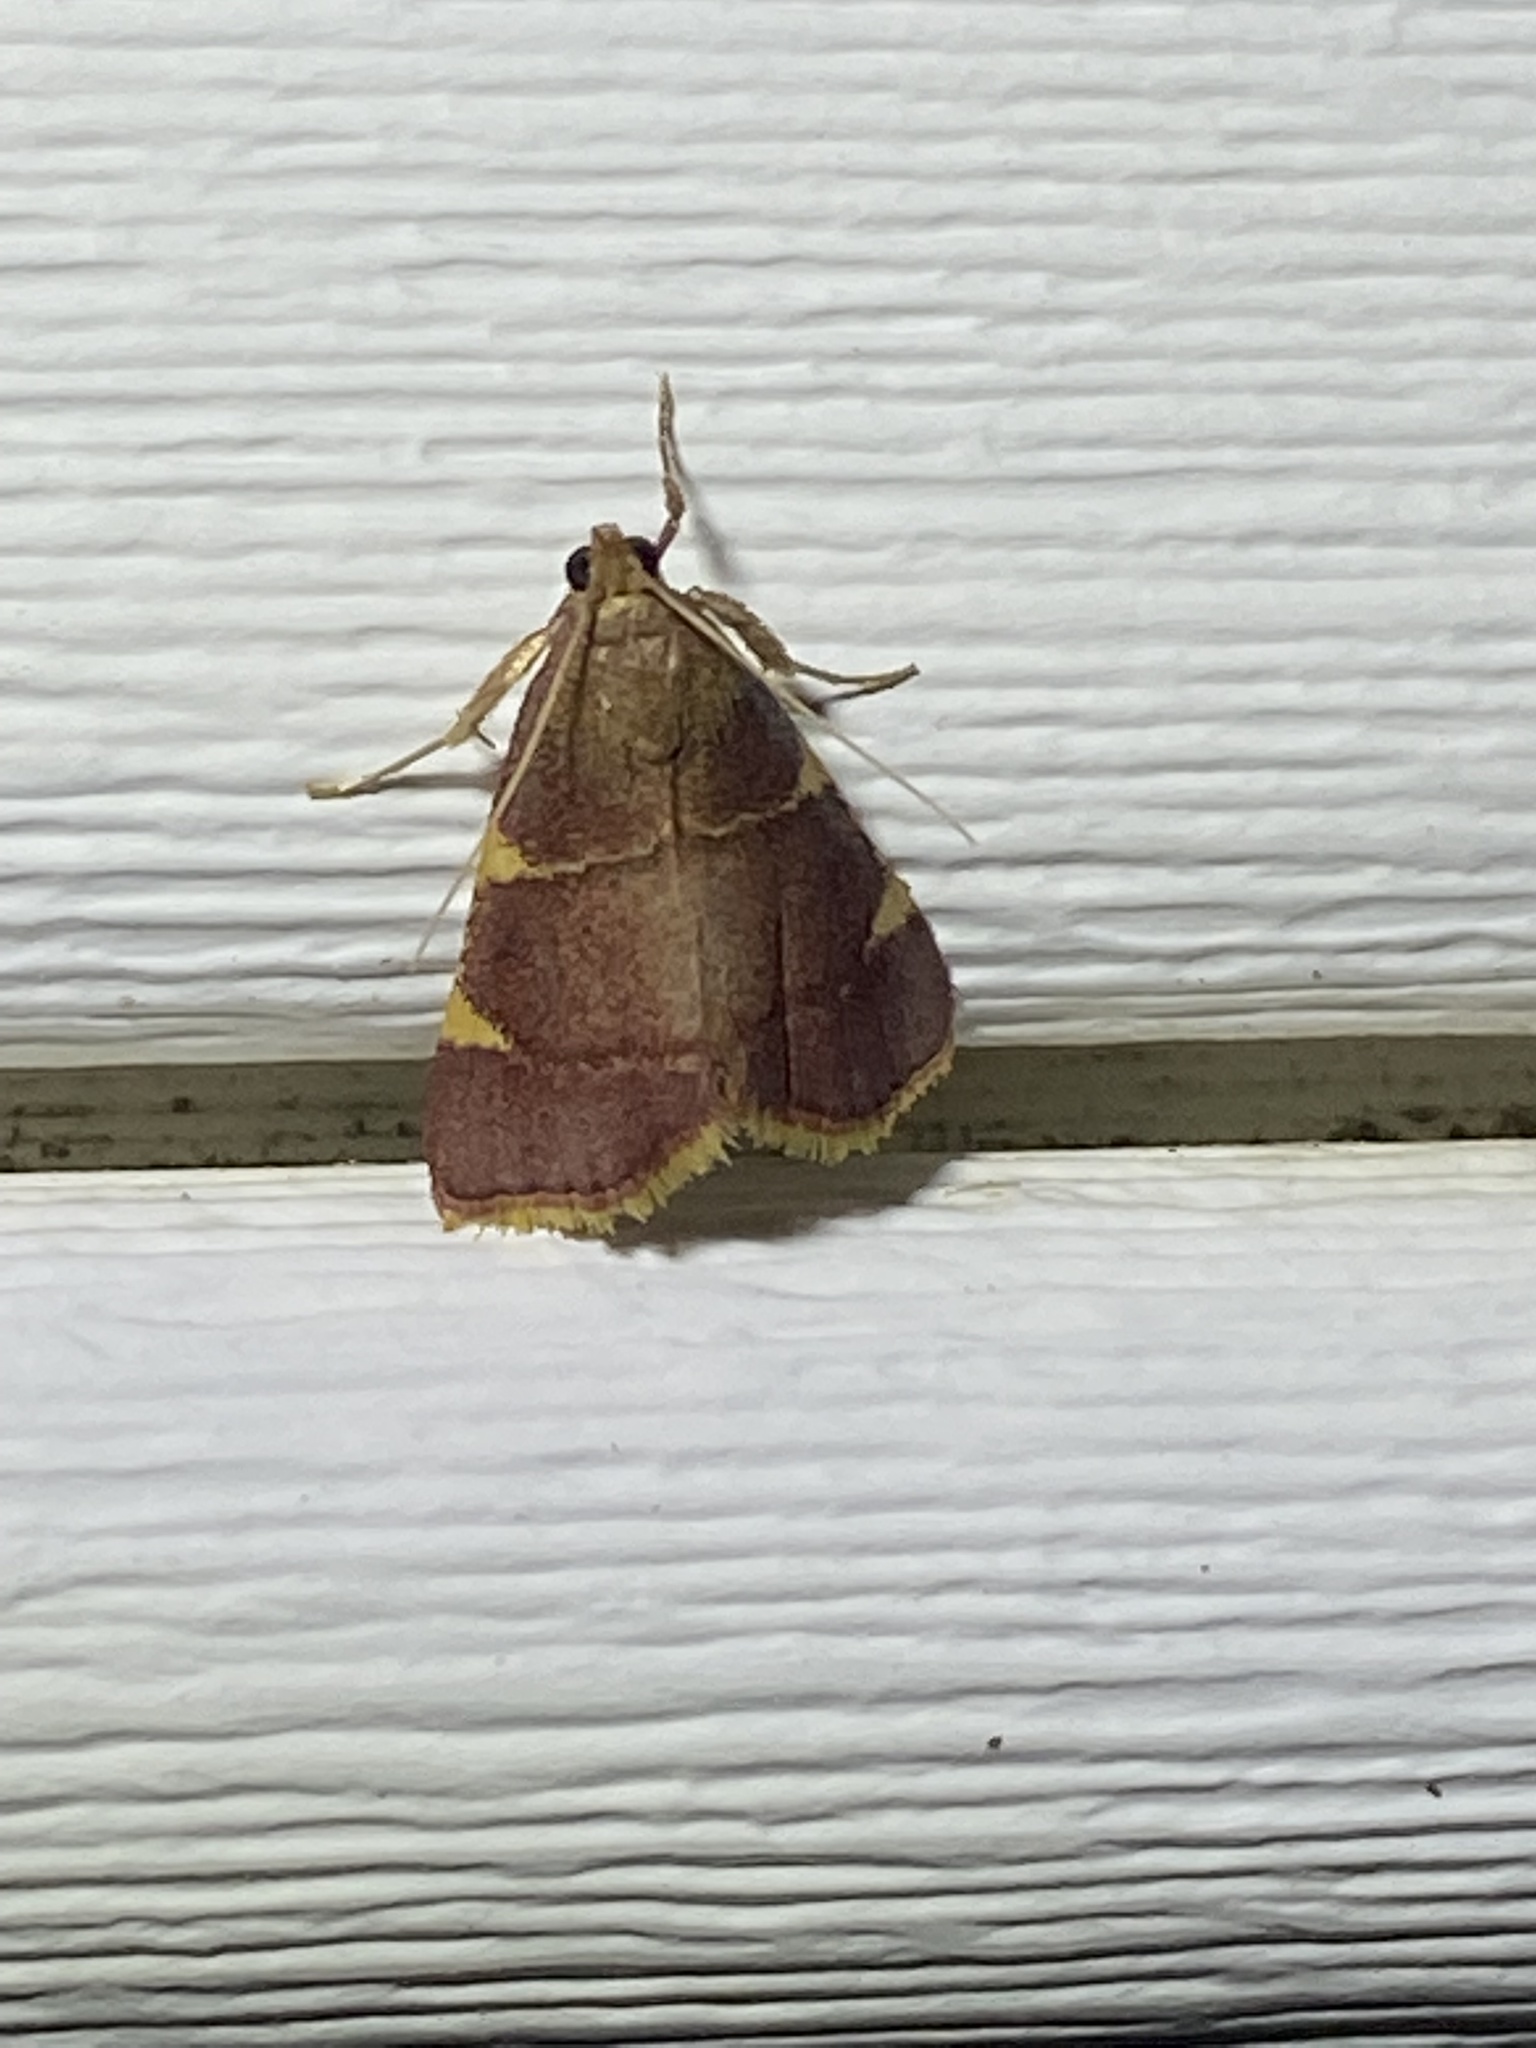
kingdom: Animalia
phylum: Arthropoda
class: Insecta
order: Lepidoptera
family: Pyralidae
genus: Hypsopygia
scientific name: Hypsopygia olinalis
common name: Yellow-fringed dolichomia moth
